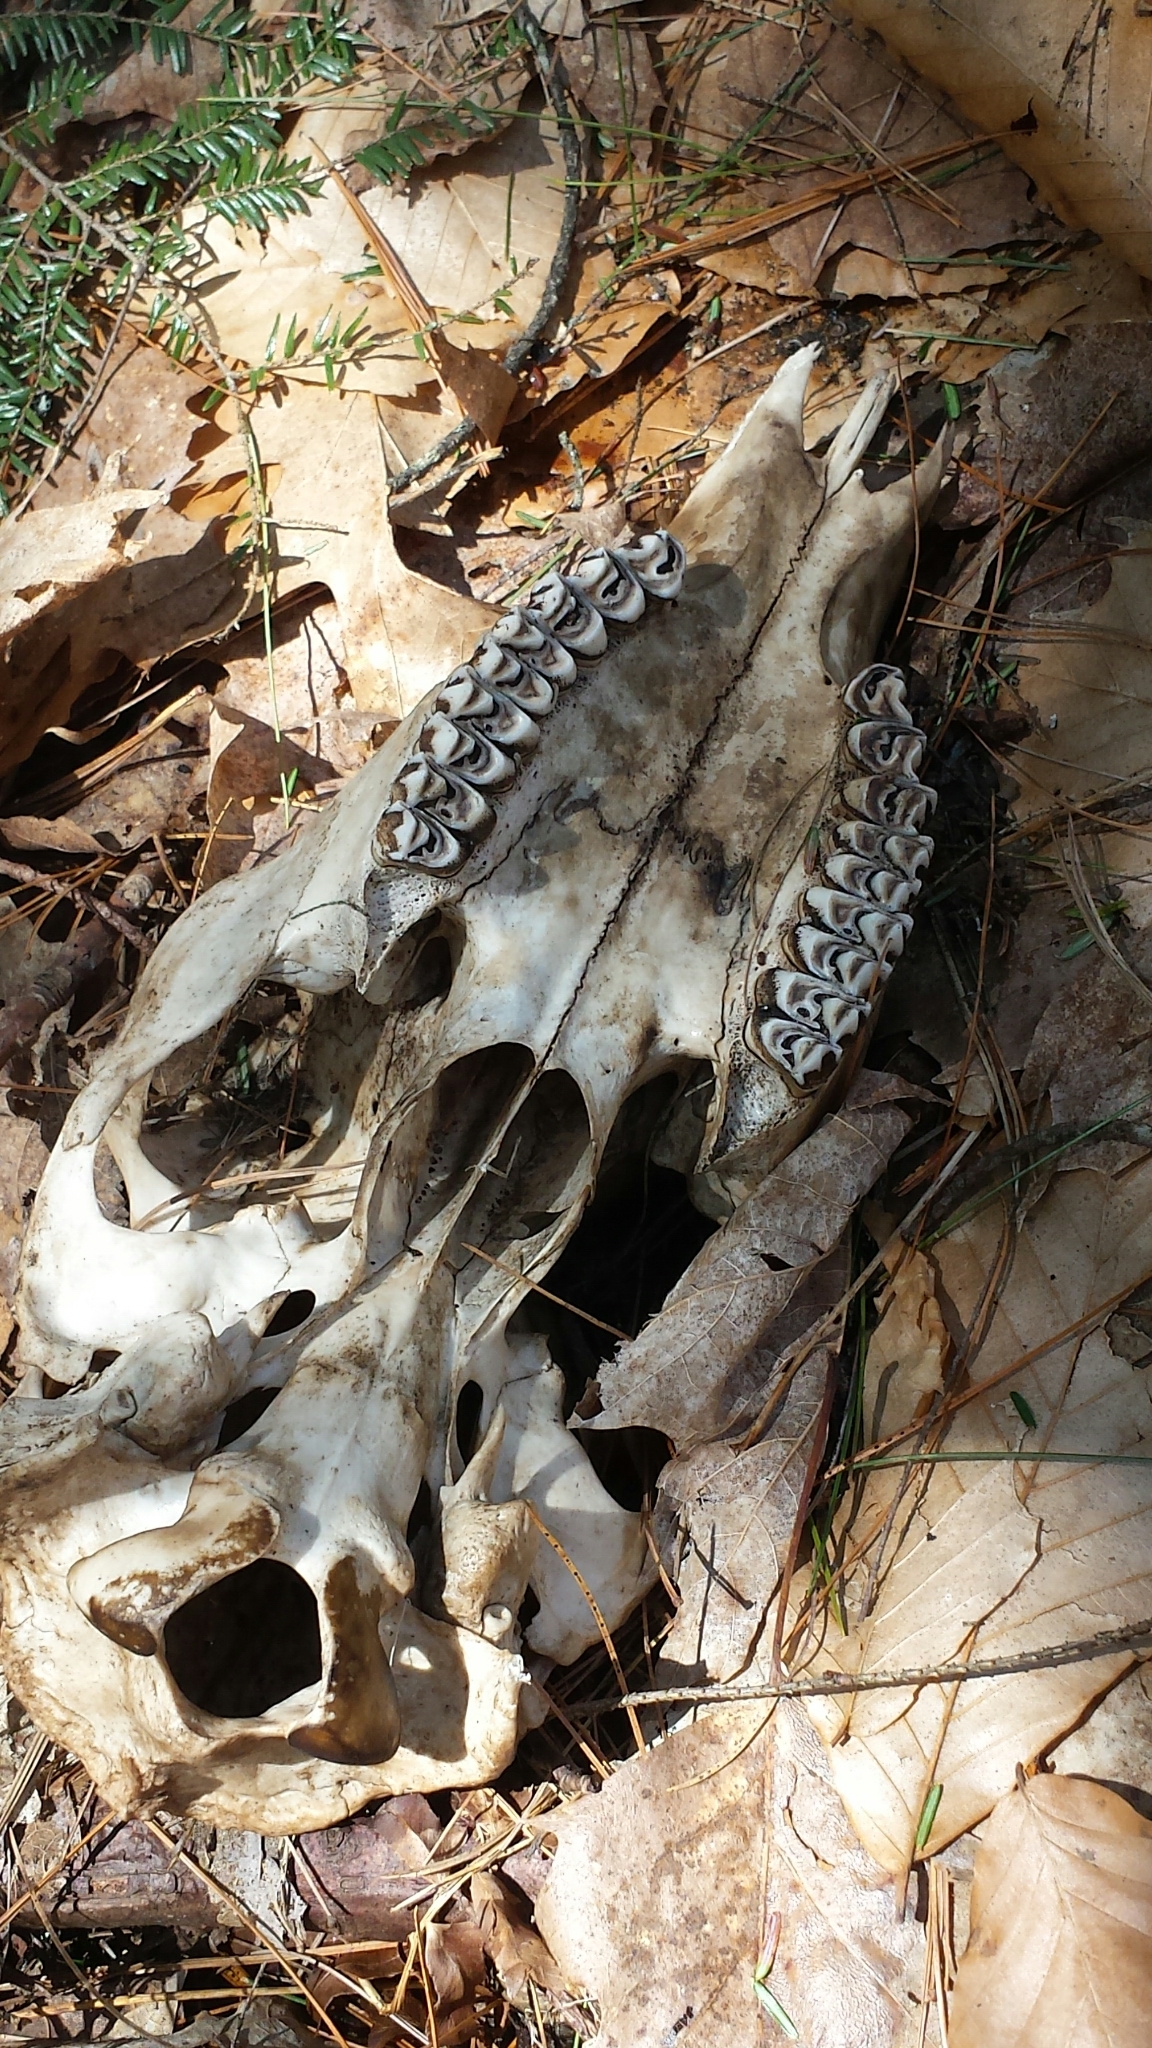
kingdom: Animalia
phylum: Chordata
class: Mammalia
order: Artiodactyla
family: Cervidae
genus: Odocoileus
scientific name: Odocoileus virginianus
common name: White-tailed deer
